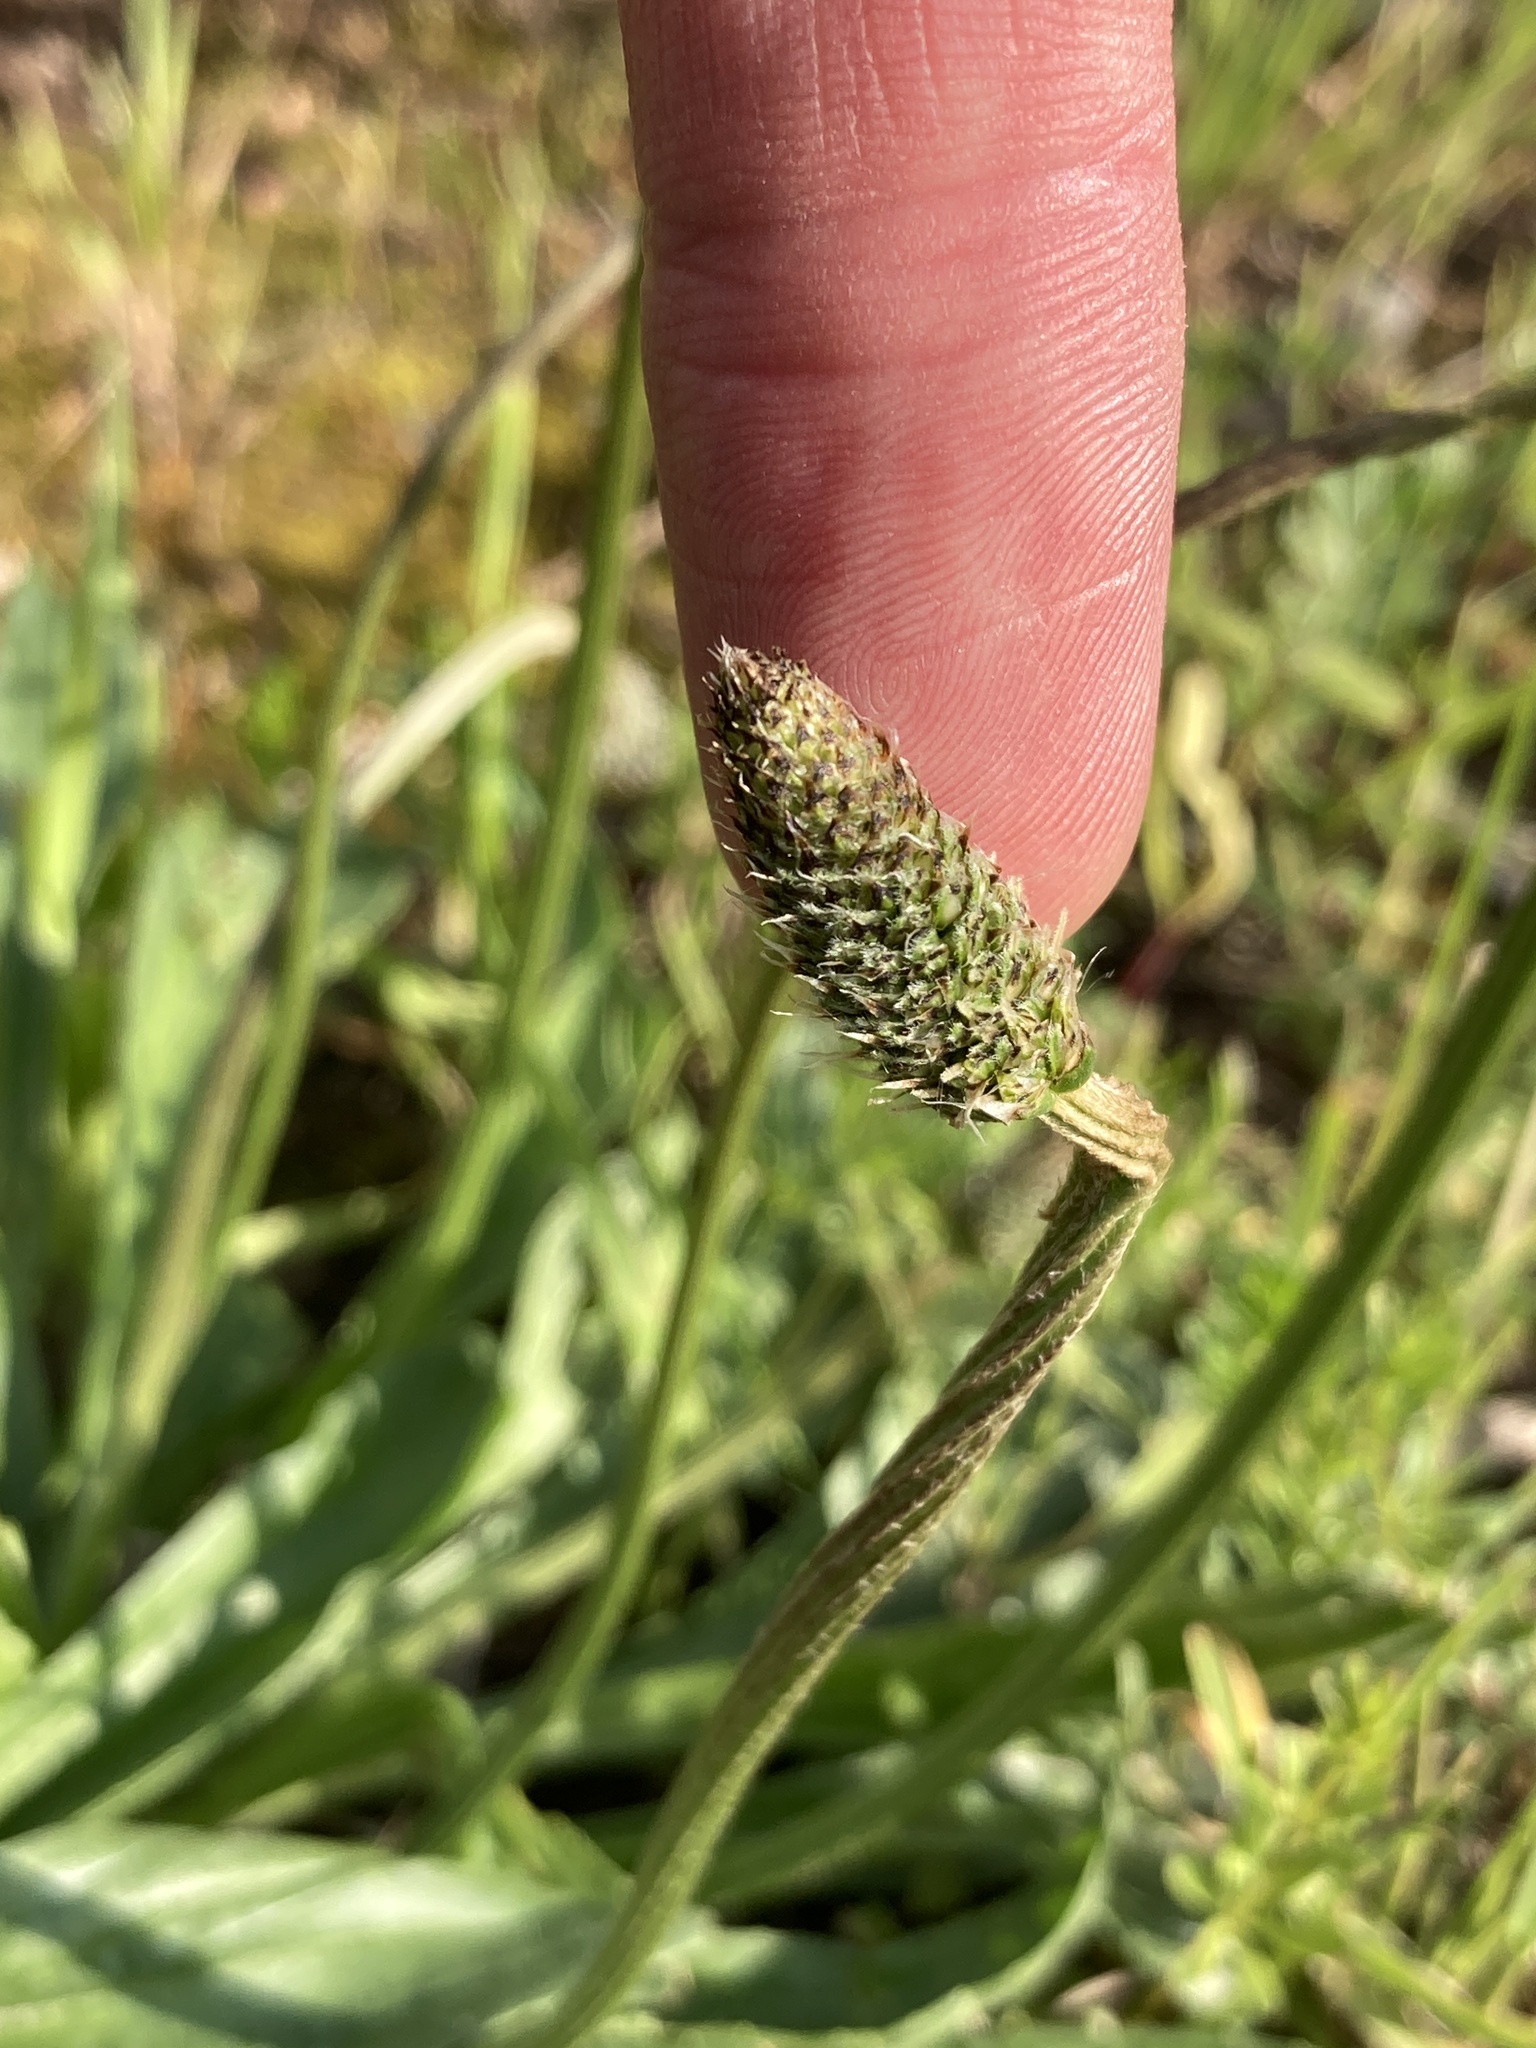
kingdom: Plantae
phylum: Tracheophyta
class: Magnoliopsida
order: Lamiales
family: Plantaginaceae
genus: Plantago
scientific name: Plantago lanceolata
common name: Ribwort plantain
